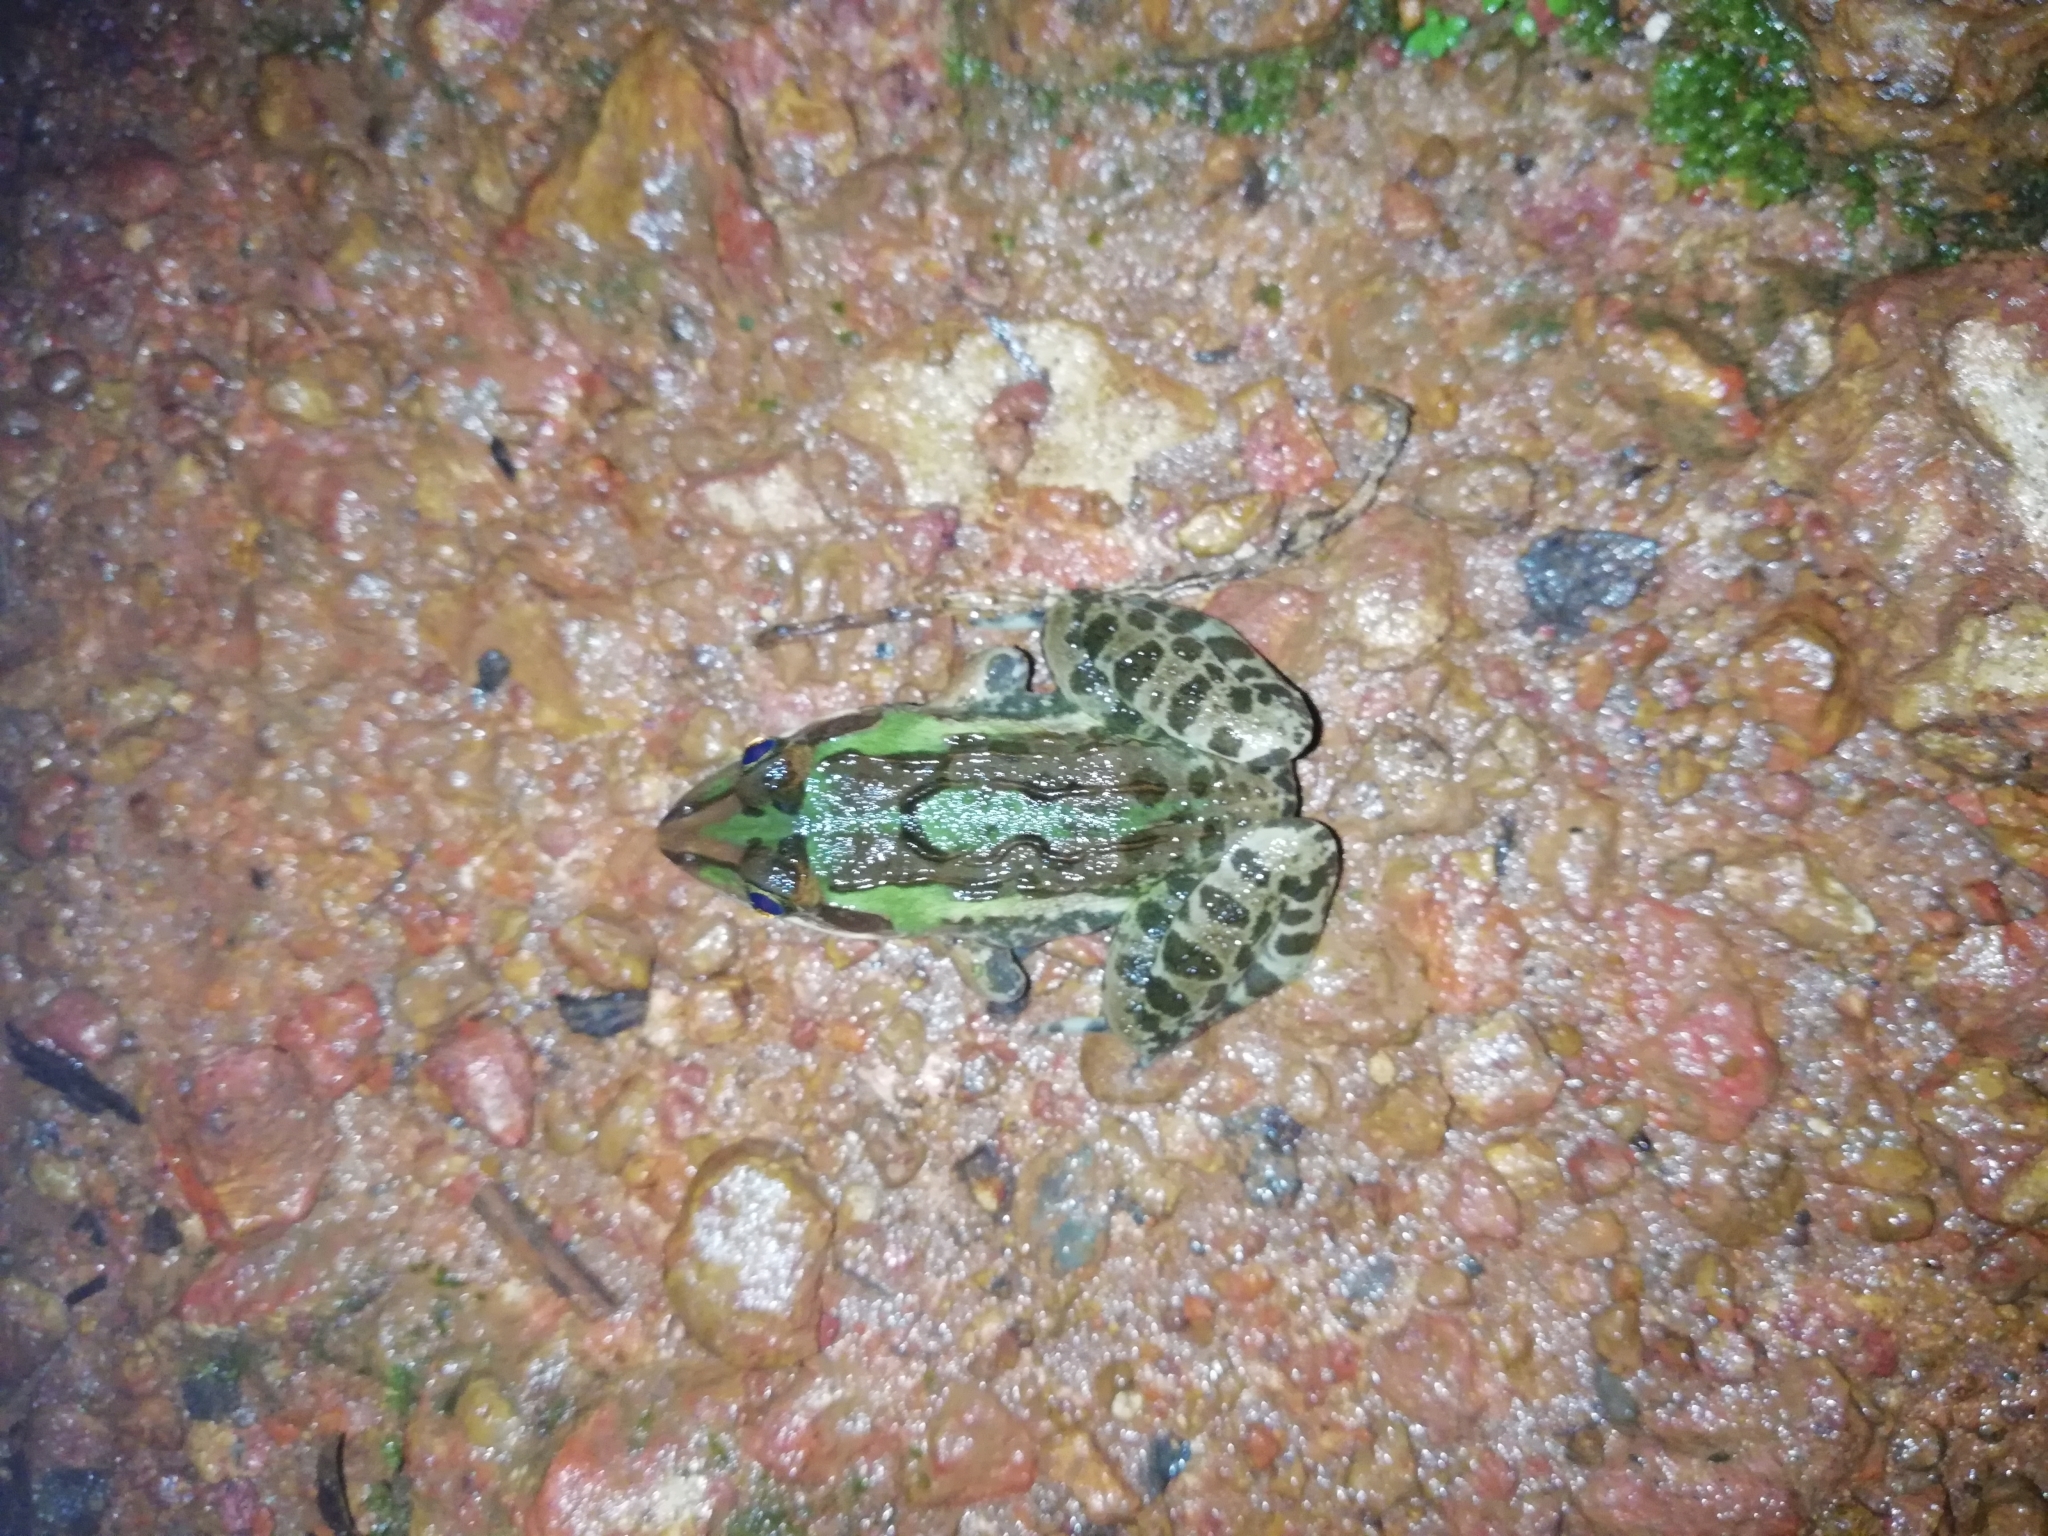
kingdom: Animalia
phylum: Chordata
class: Amphibia
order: Anura
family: Dicroglossidae
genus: Hoplobatrachus
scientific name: Hoplobatrachus tigerinus
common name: Indian bullfrog
